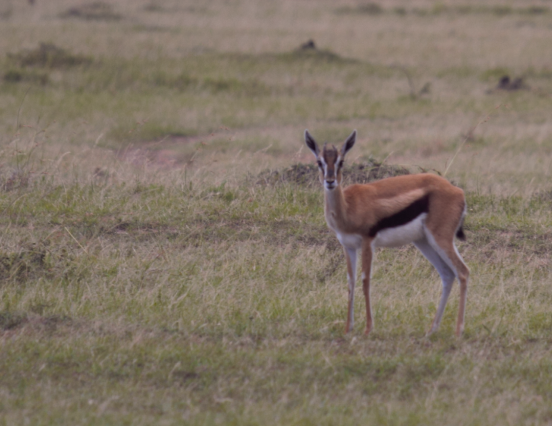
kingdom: Animalia
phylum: Chordata
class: Mammalia
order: Artiodactyla
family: Bovidae
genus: Eudorcas
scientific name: Eudorcas thomsonii
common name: Thomson's gazelle
